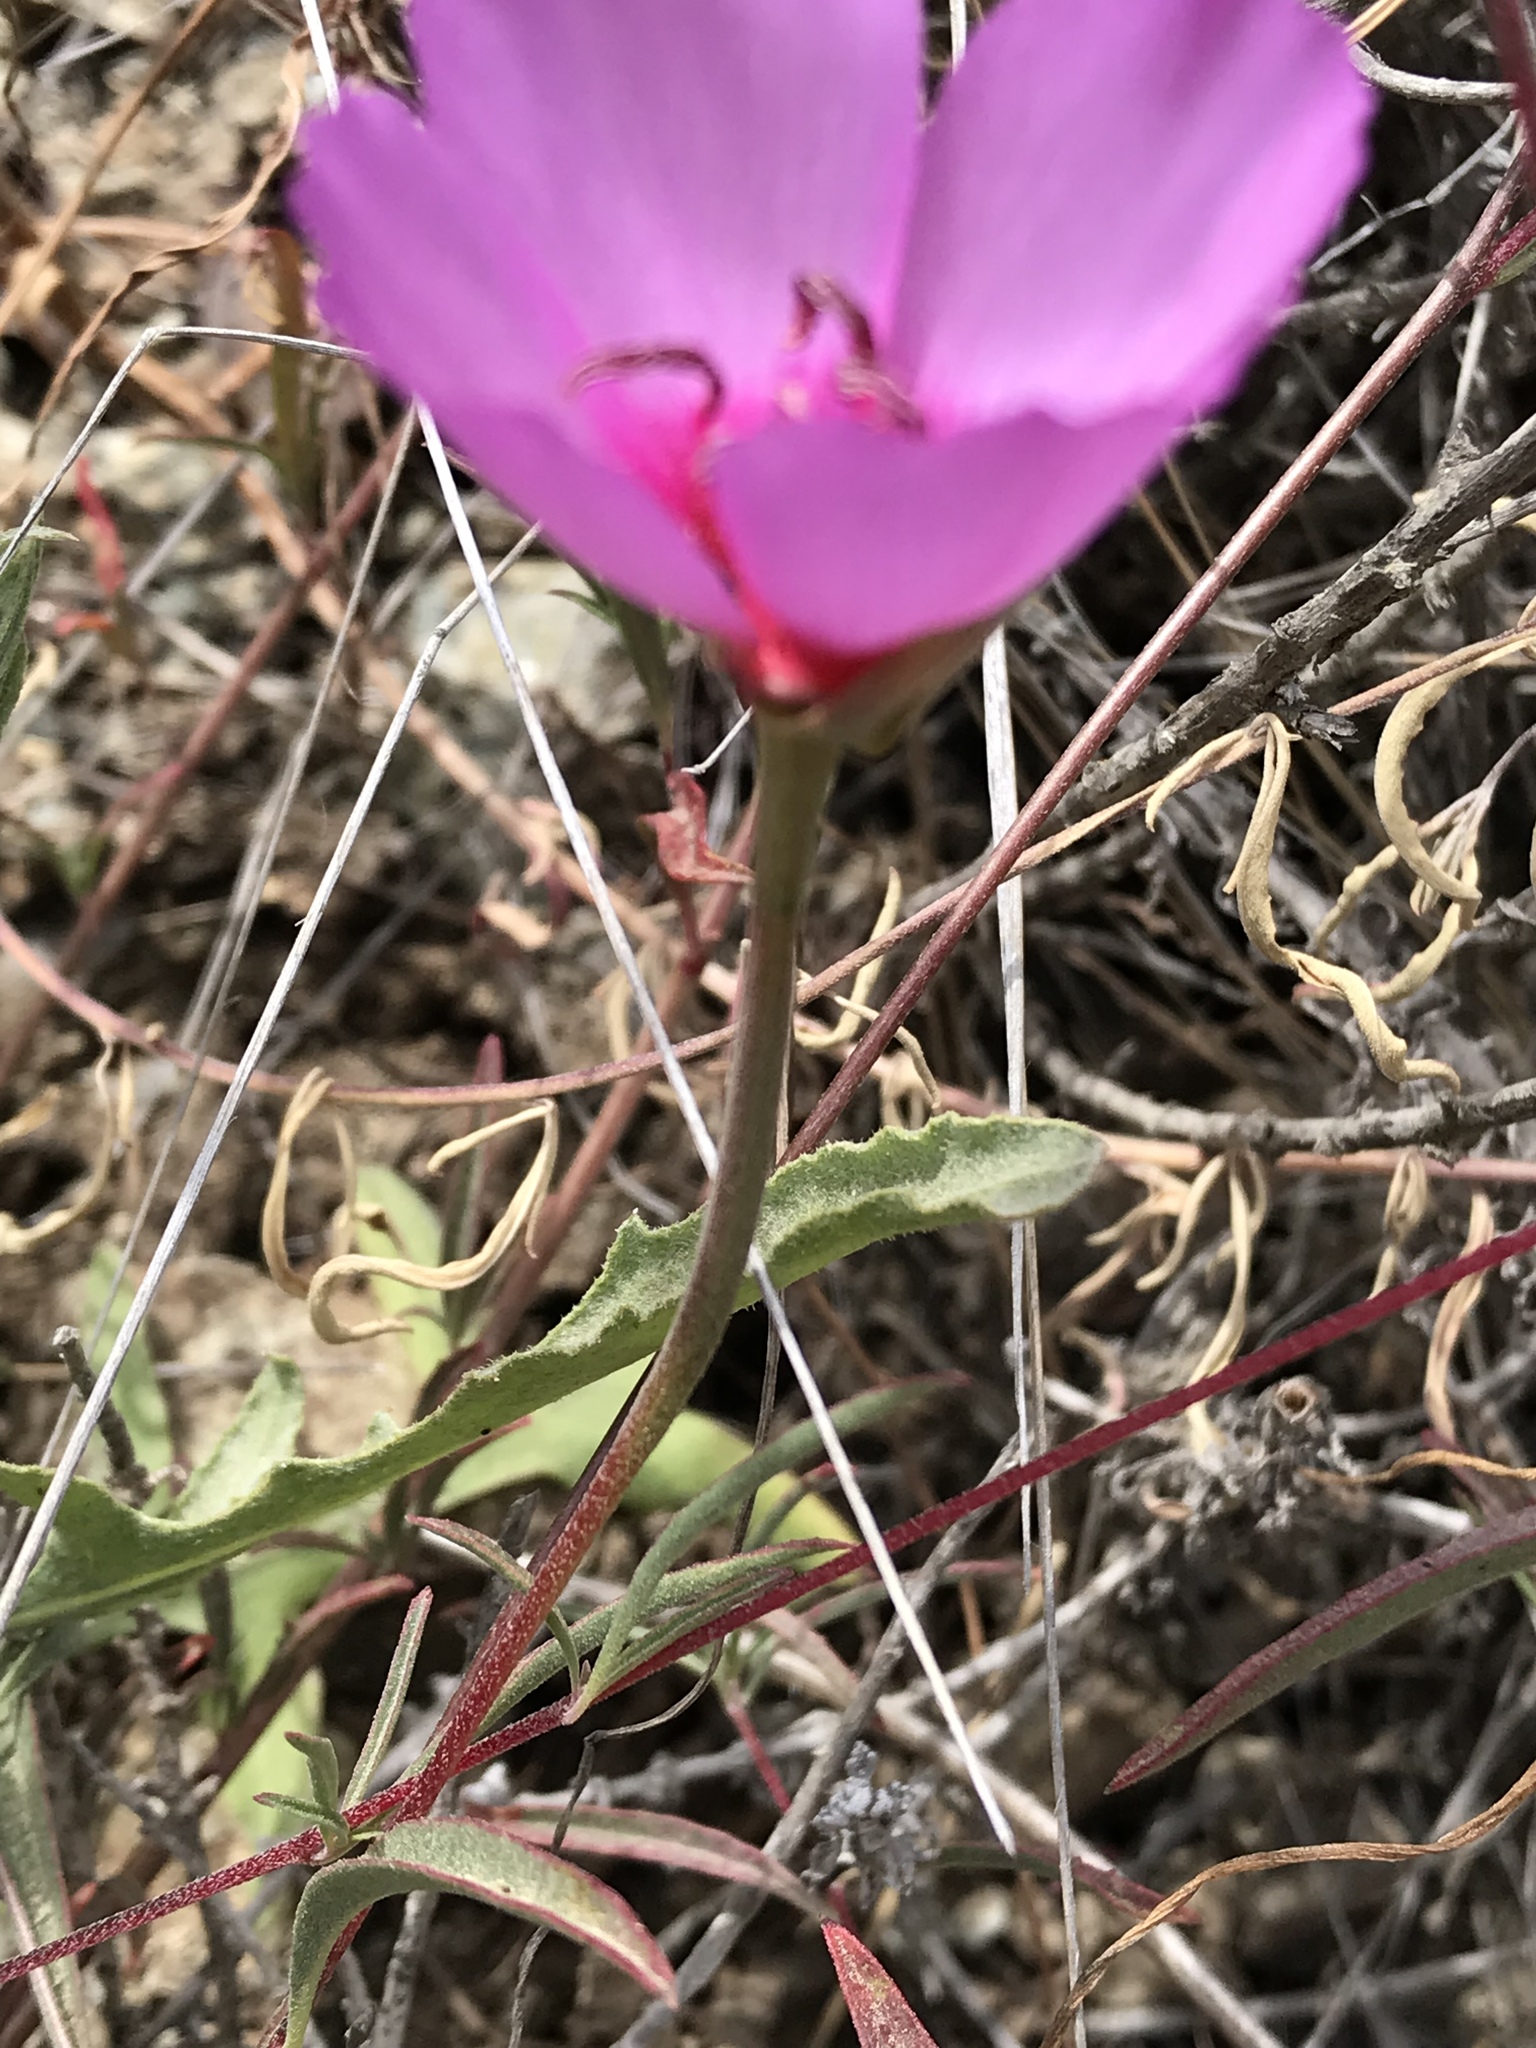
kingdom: Plantae
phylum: Tracheophyta
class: Magnoliopsida
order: Myrtales
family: Onagraceae
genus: Clarkia
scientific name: Clarkia rubicunda
